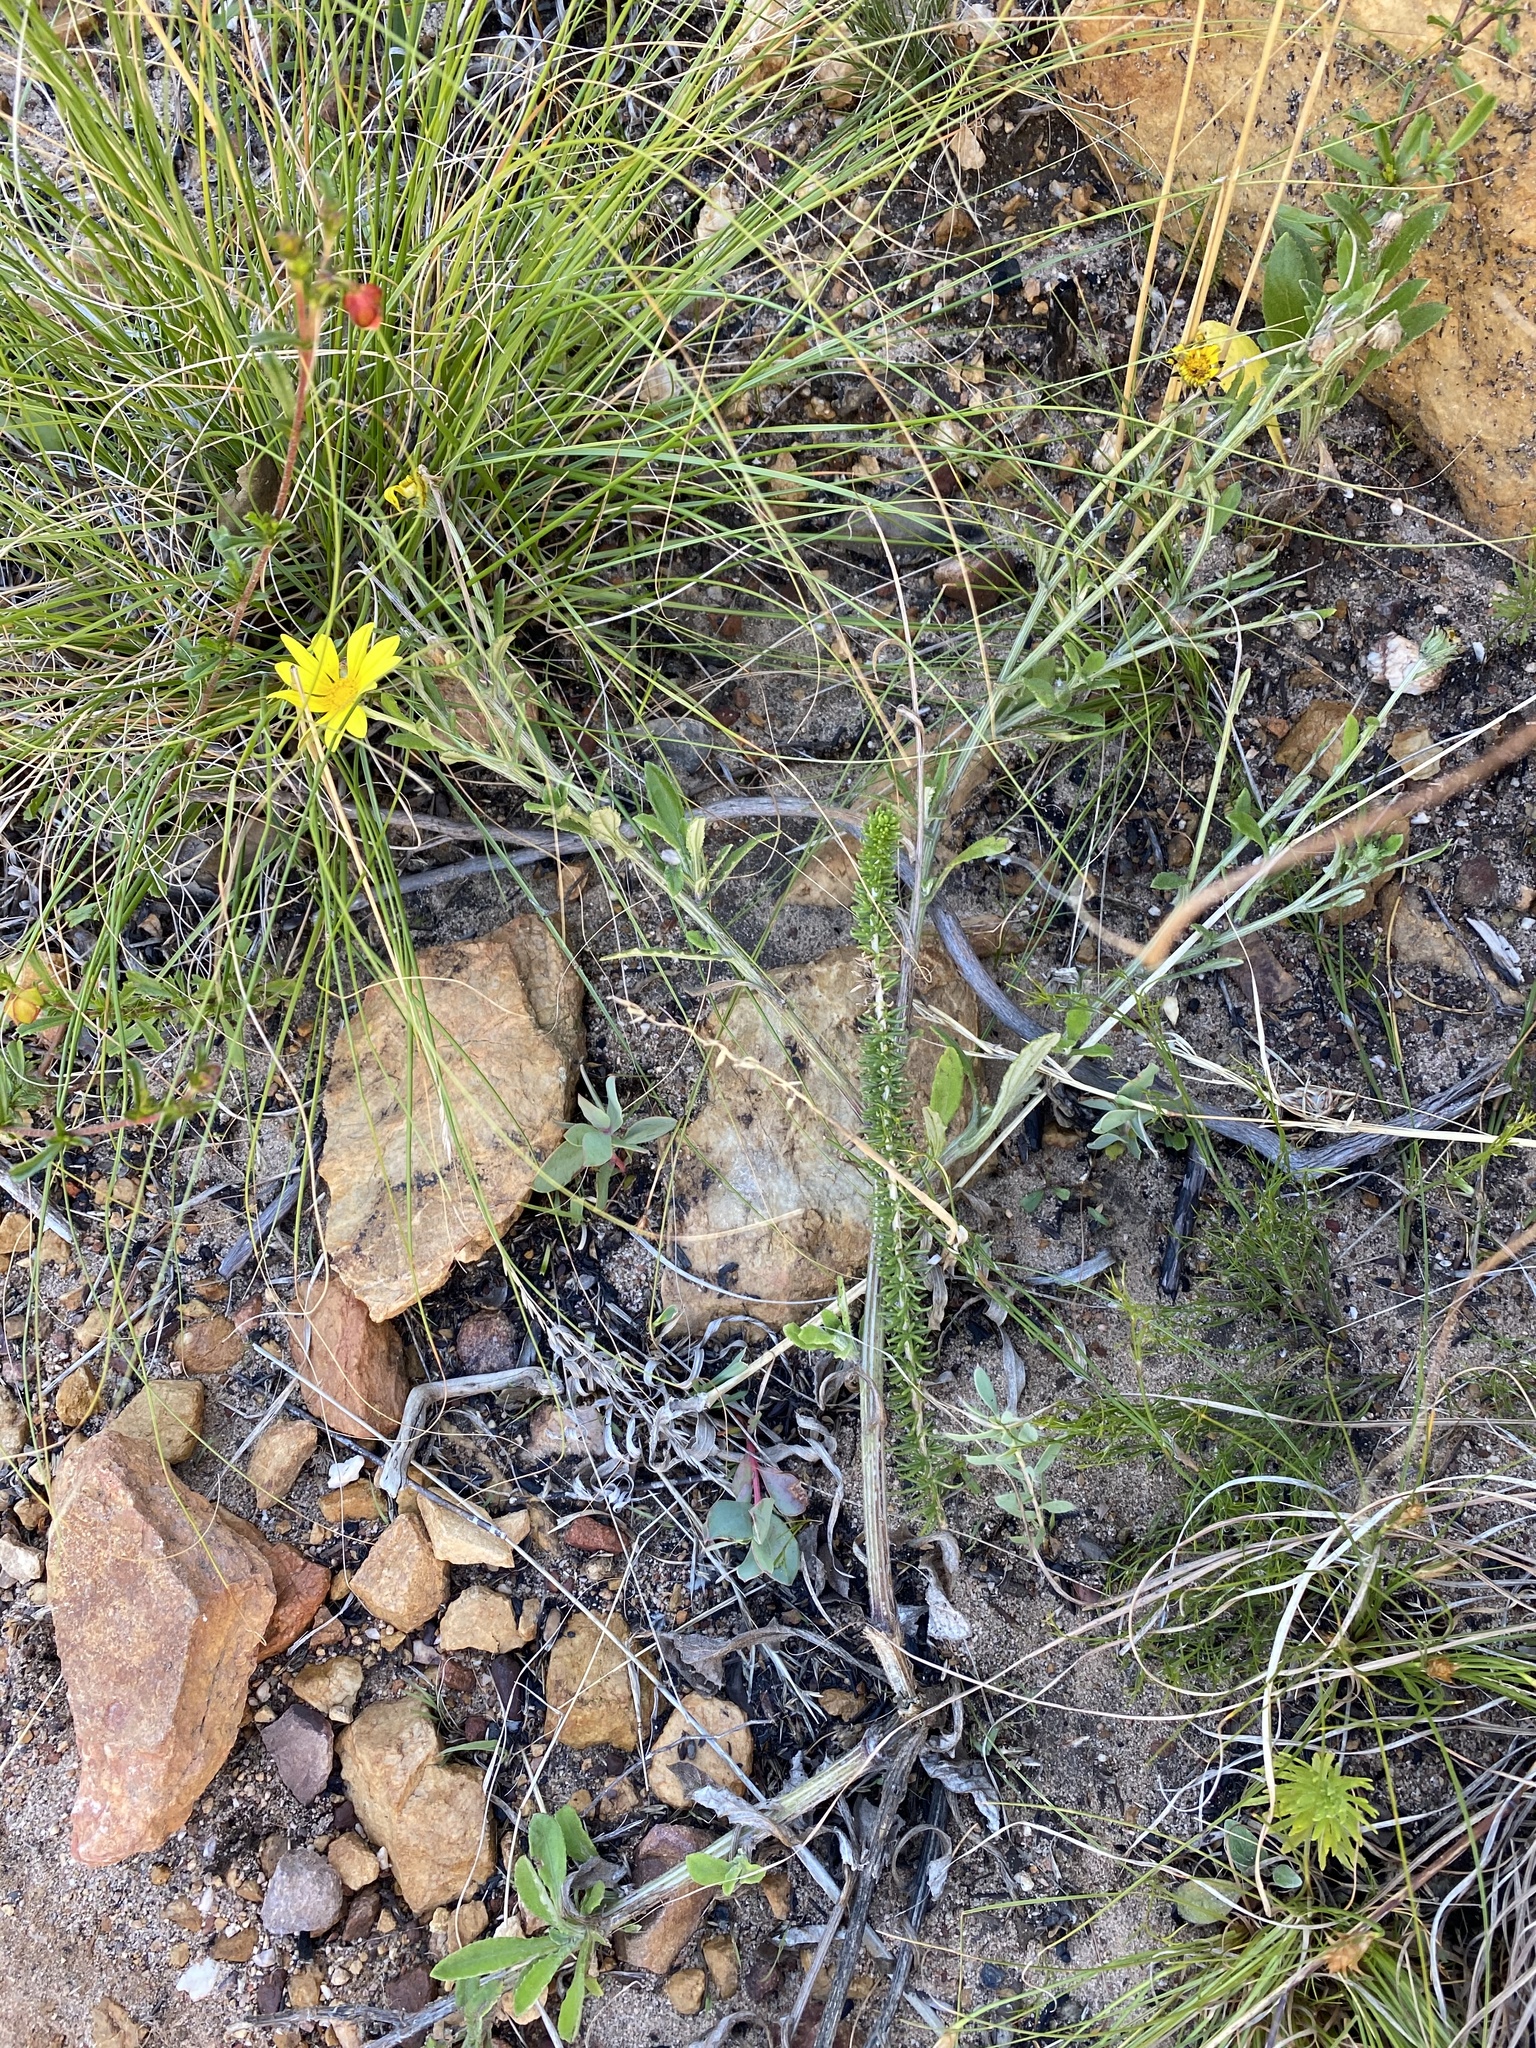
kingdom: Plantae
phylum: Tracheophyta
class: Magnoliopsida
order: Asterales
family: Asteraceae
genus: Arctotis
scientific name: Arctotis scabra
